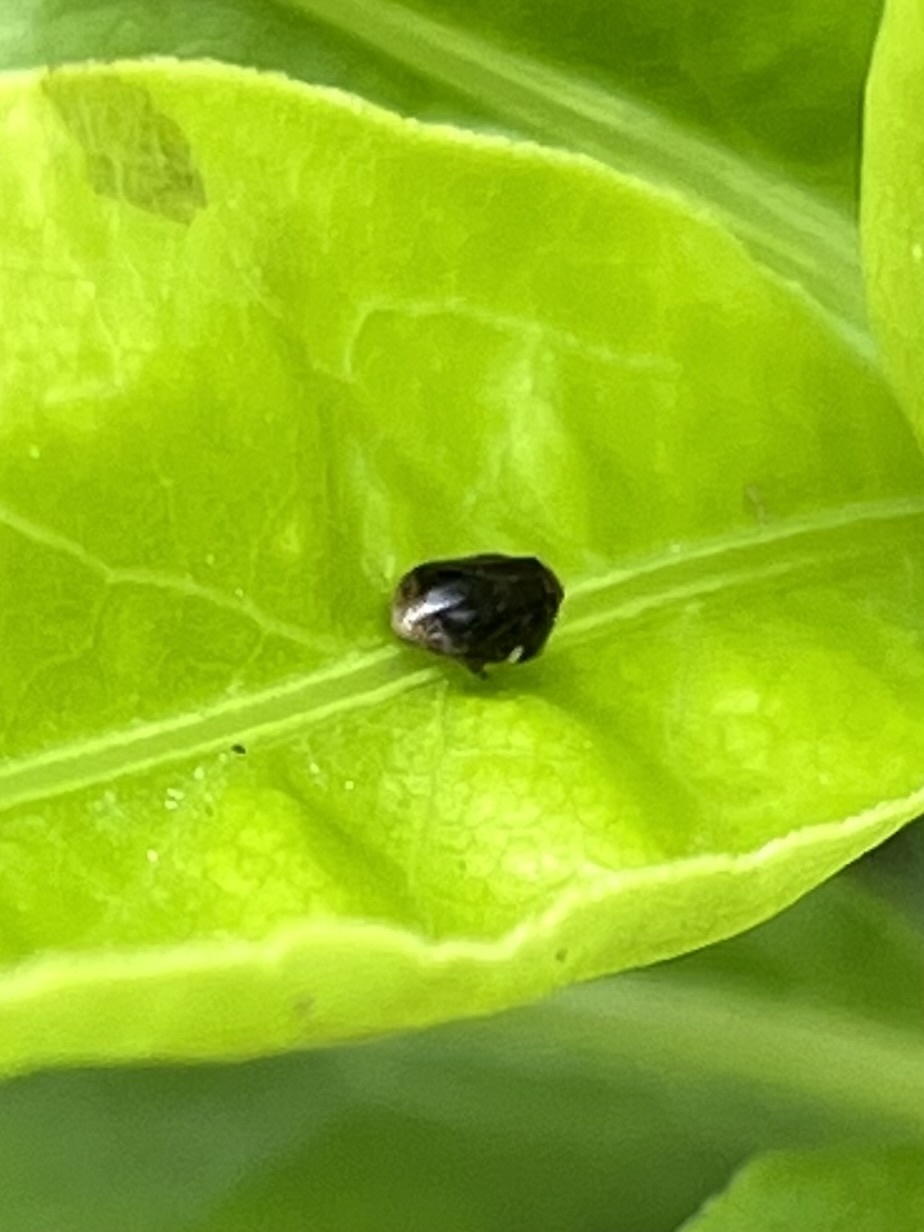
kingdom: Animalia
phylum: Arthropoda
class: Insecta
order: Hemiptera
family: Clastopteridae
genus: Clastoptera
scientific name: Clastoptera xanthocephala
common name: Sunflower spittlebug
